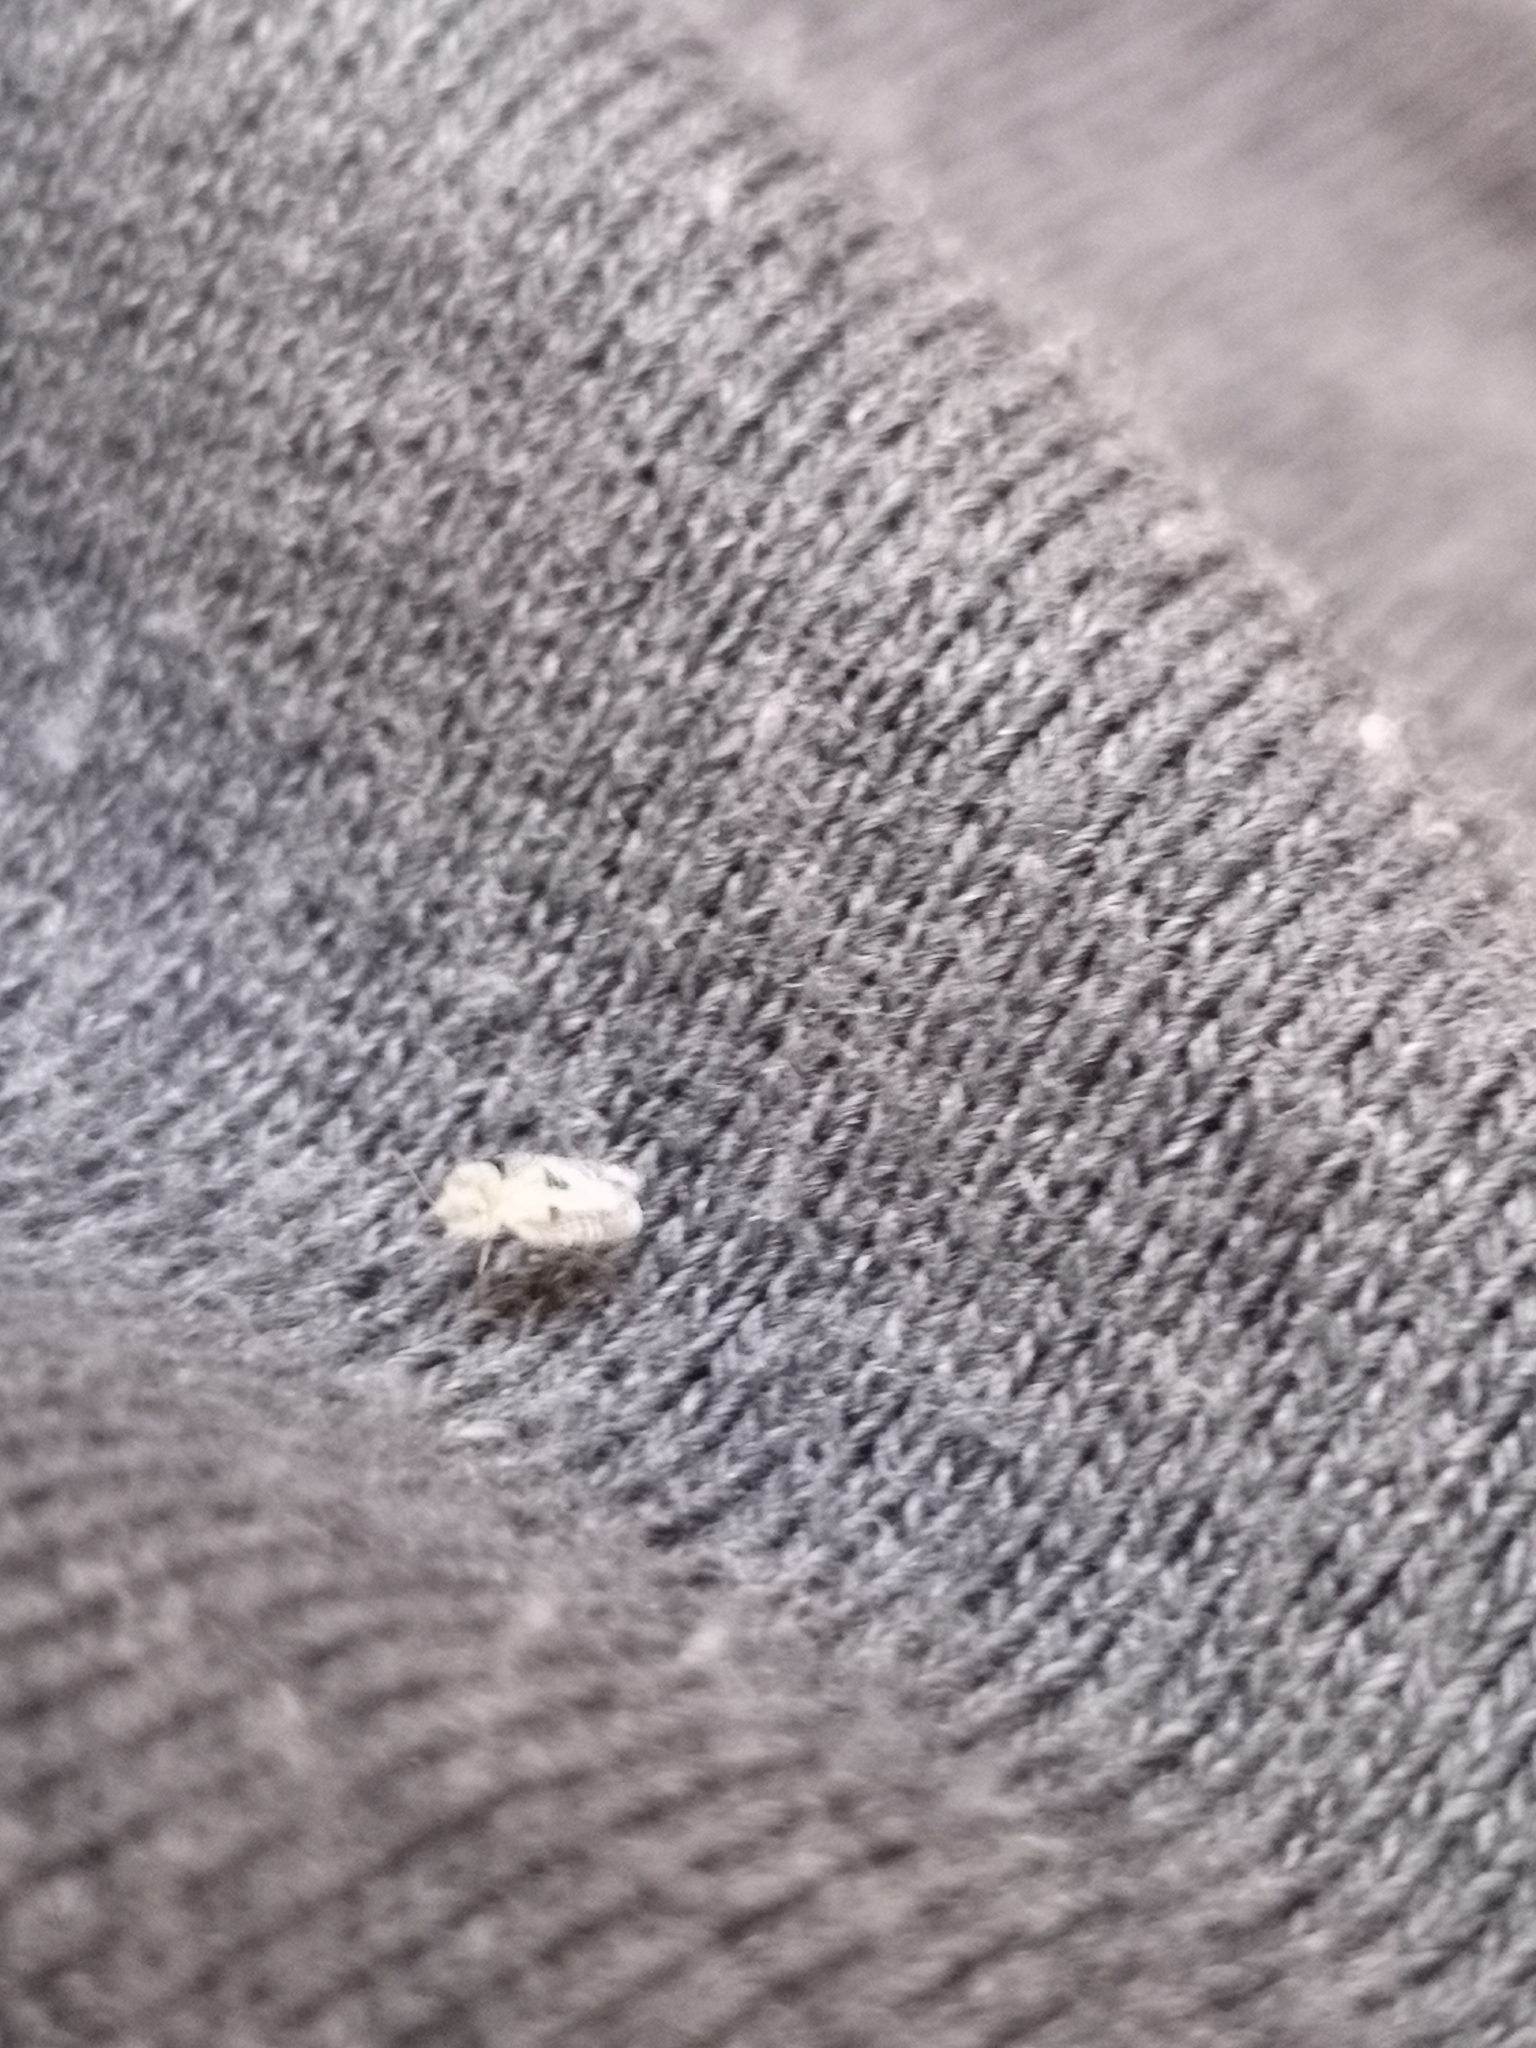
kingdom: Animalia
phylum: Arthropoda
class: Insecta
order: Hemiptera
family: Tingidae
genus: Corythucha
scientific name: Corythucha ciliata
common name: Sycamore lace bug
